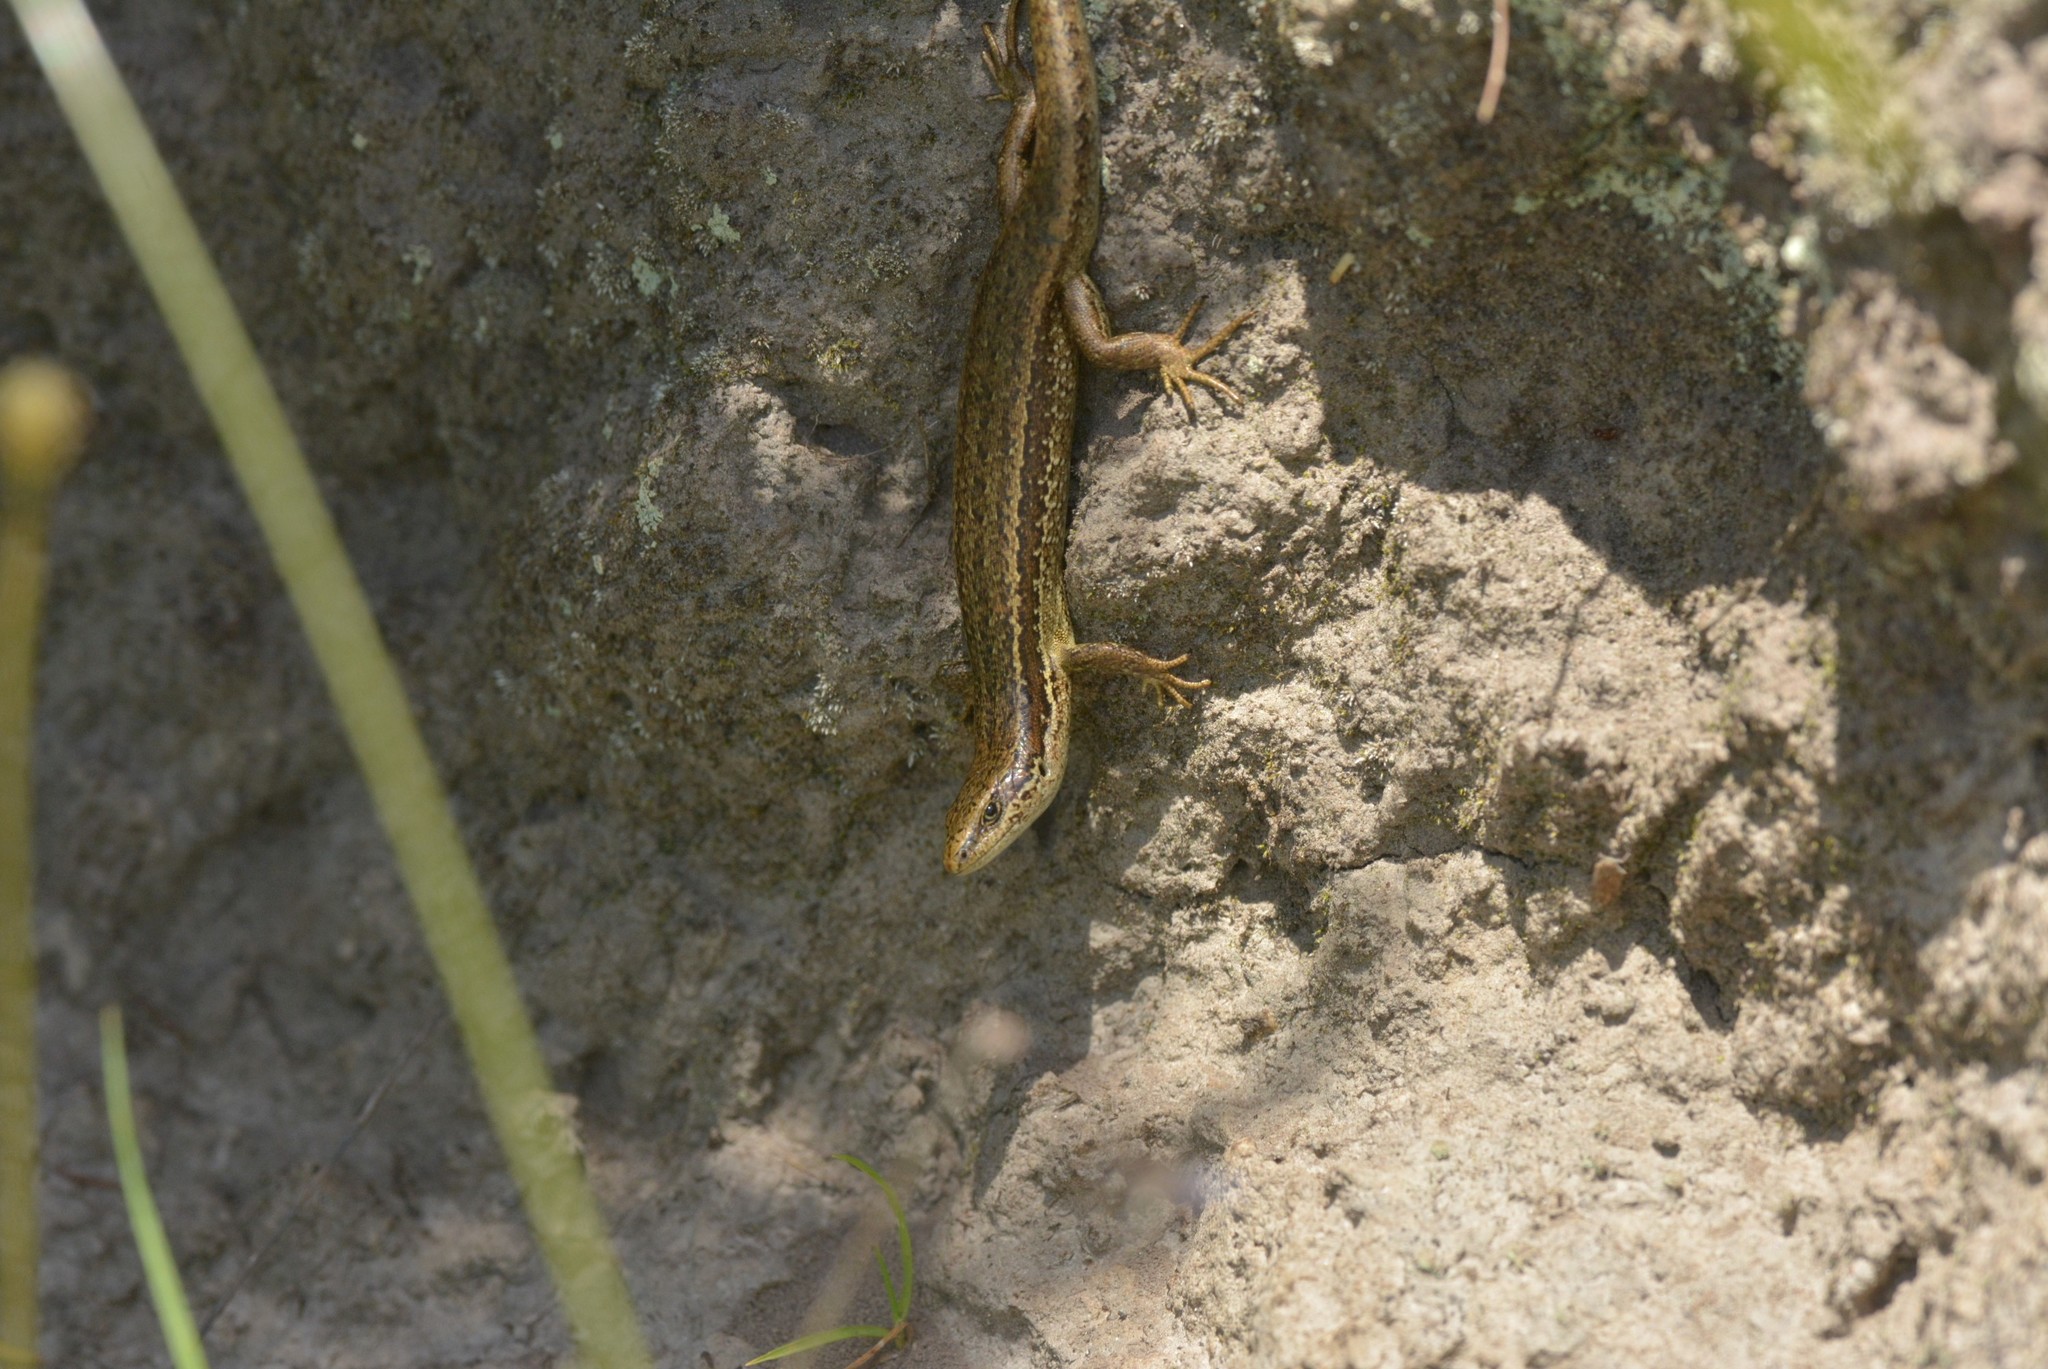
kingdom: Animalia
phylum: Chordata
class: Squamata
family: Scincidae
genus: Oligosoma
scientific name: Oligosoma polychroma
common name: Common new zealand skink
